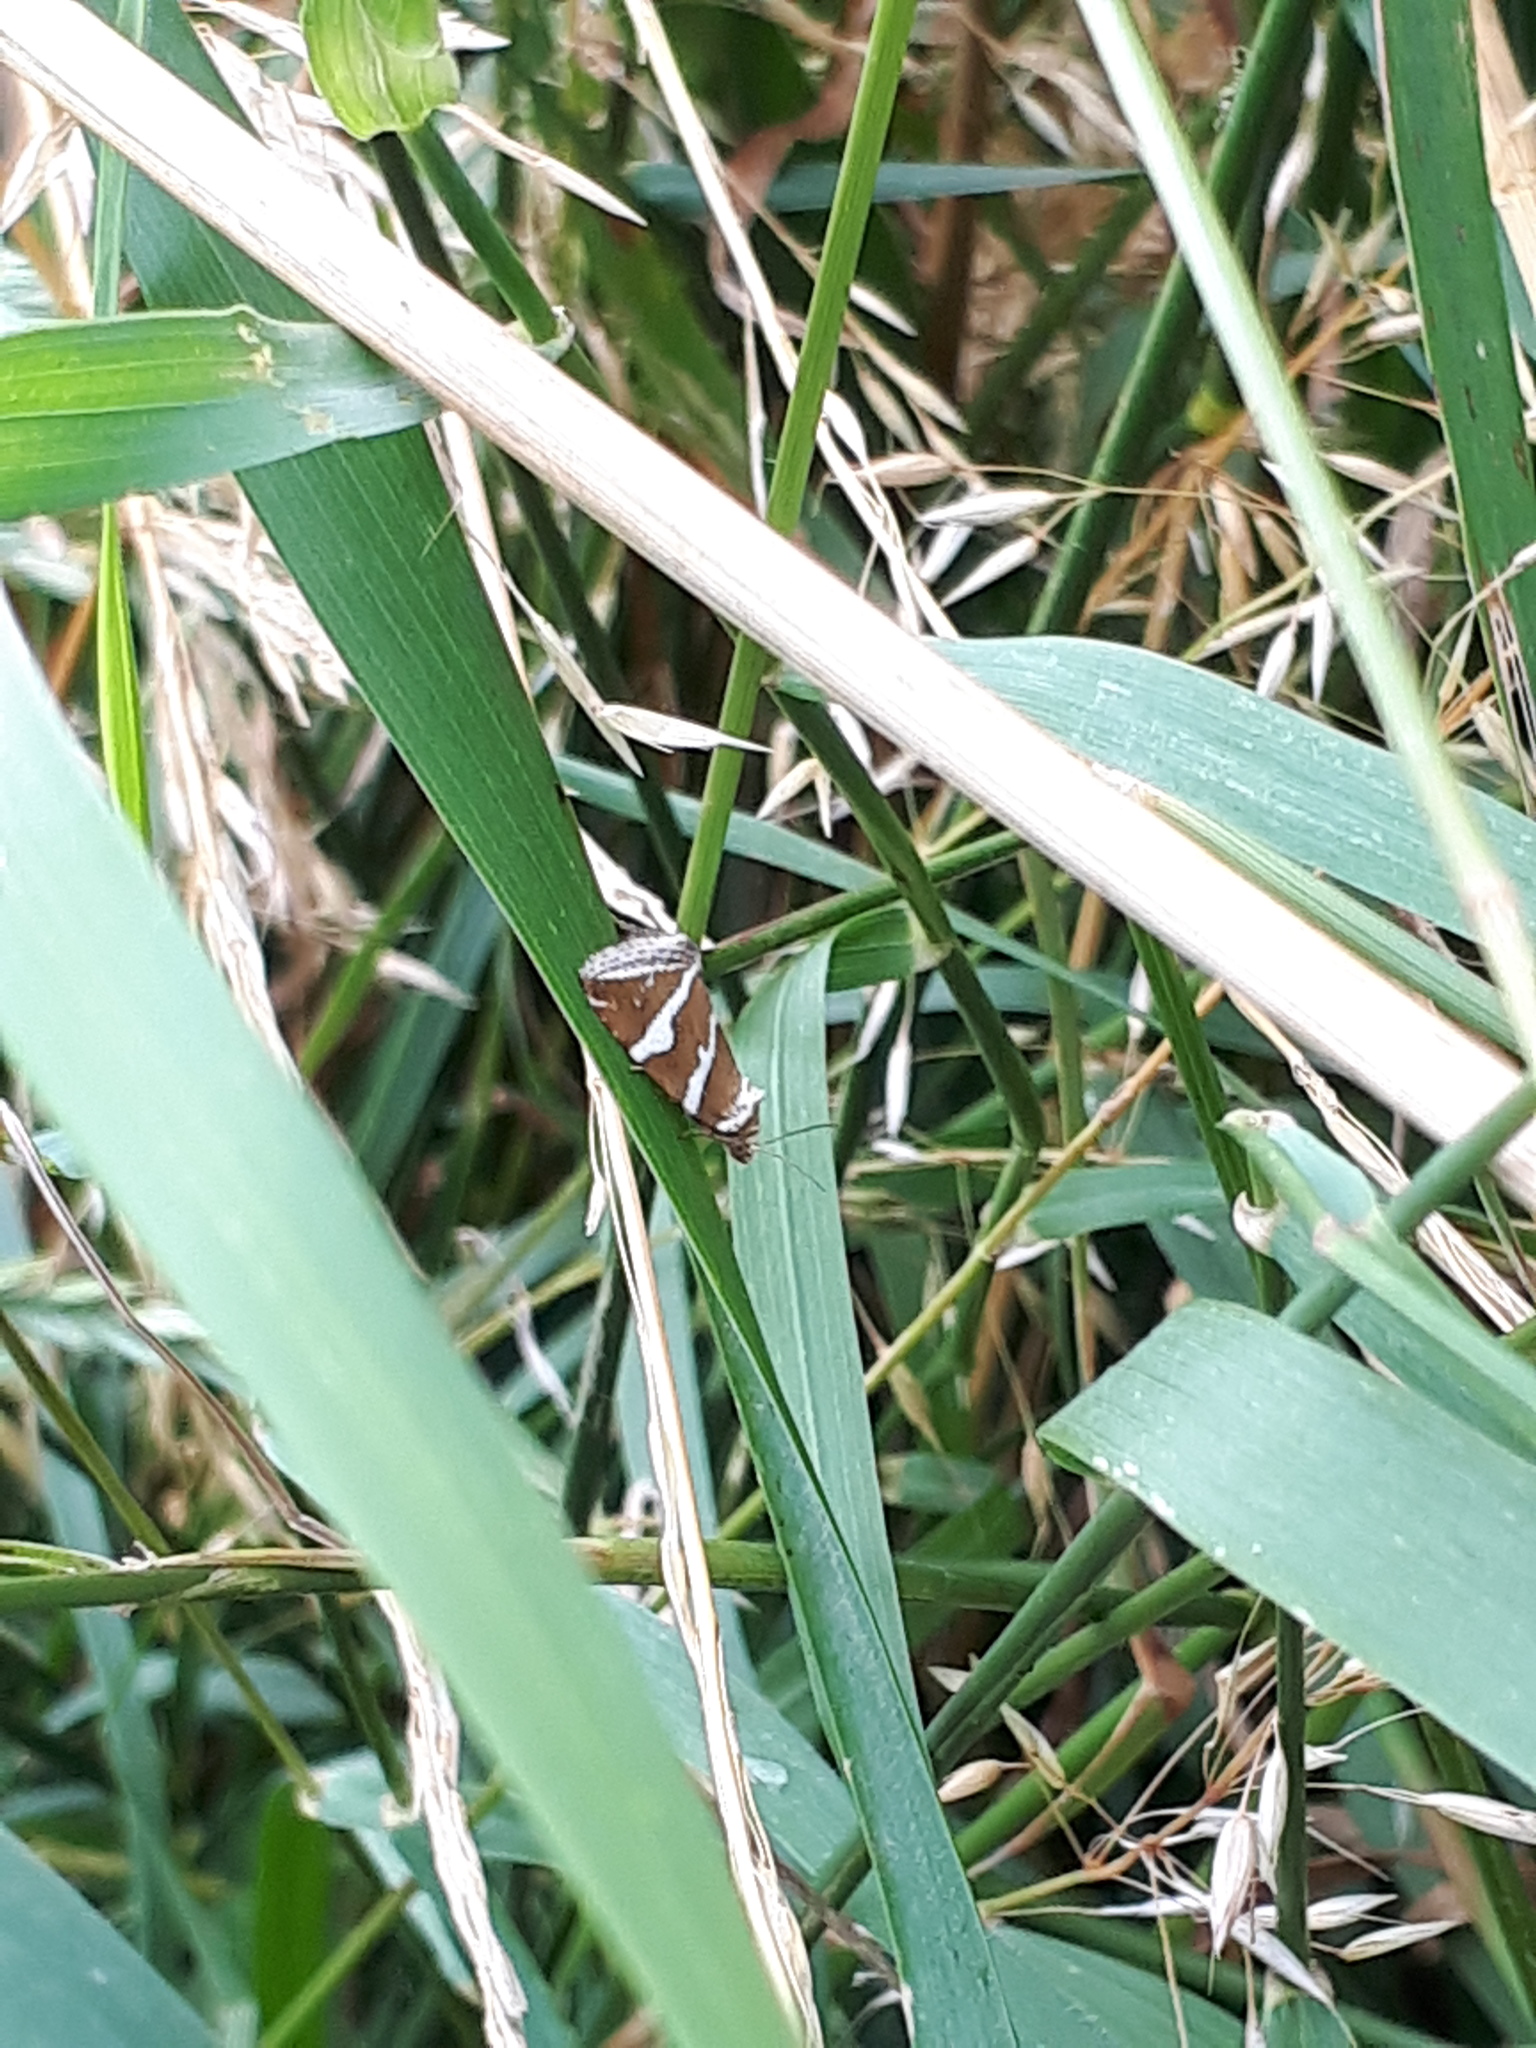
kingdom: Animalia
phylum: Arthropoda
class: Insecta
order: Lepidoptera
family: Noctuidae
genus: Deltote
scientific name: Deltote bankiana
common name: Silver barred
